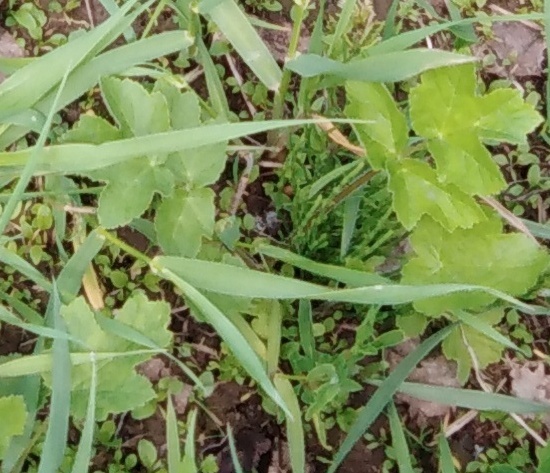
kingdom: Plantae
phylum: Tracheophyta
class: Magnoliopsida
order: Apiales
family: Apiaceae
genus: Heracleum
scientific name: Heracleum sphondylium
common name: Hogweed
